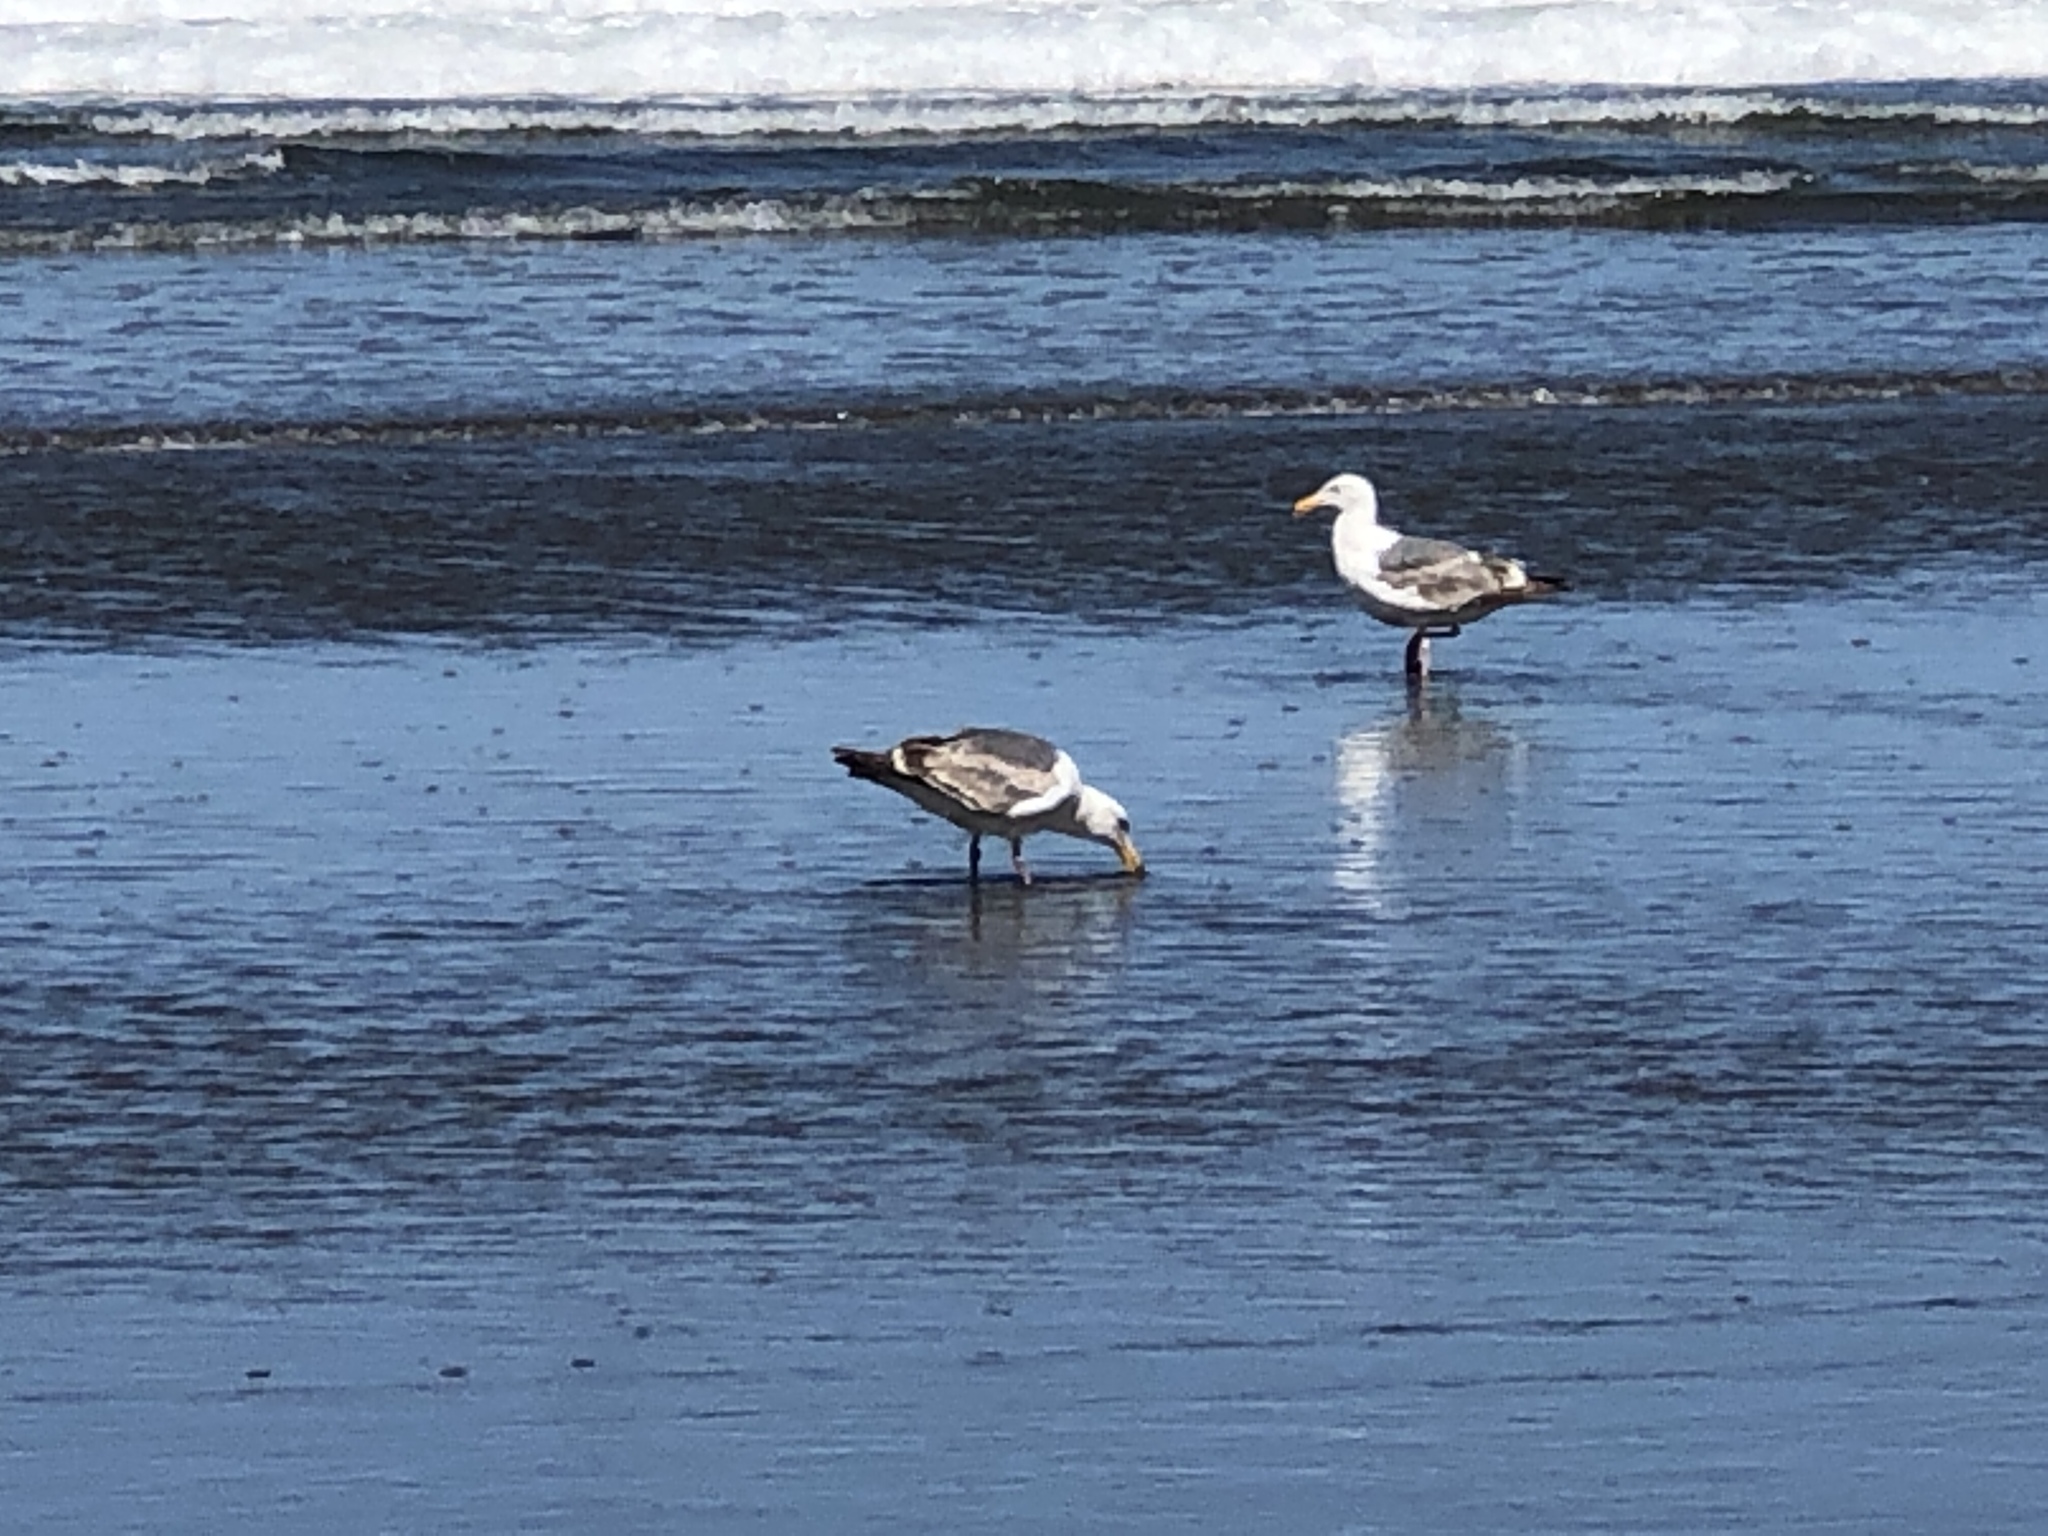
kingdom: Animalia
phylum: Chordata
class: Aves
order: Charadriiformes
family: Laridae
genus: Larus
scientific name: Larus occidentalis
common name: Western gull
